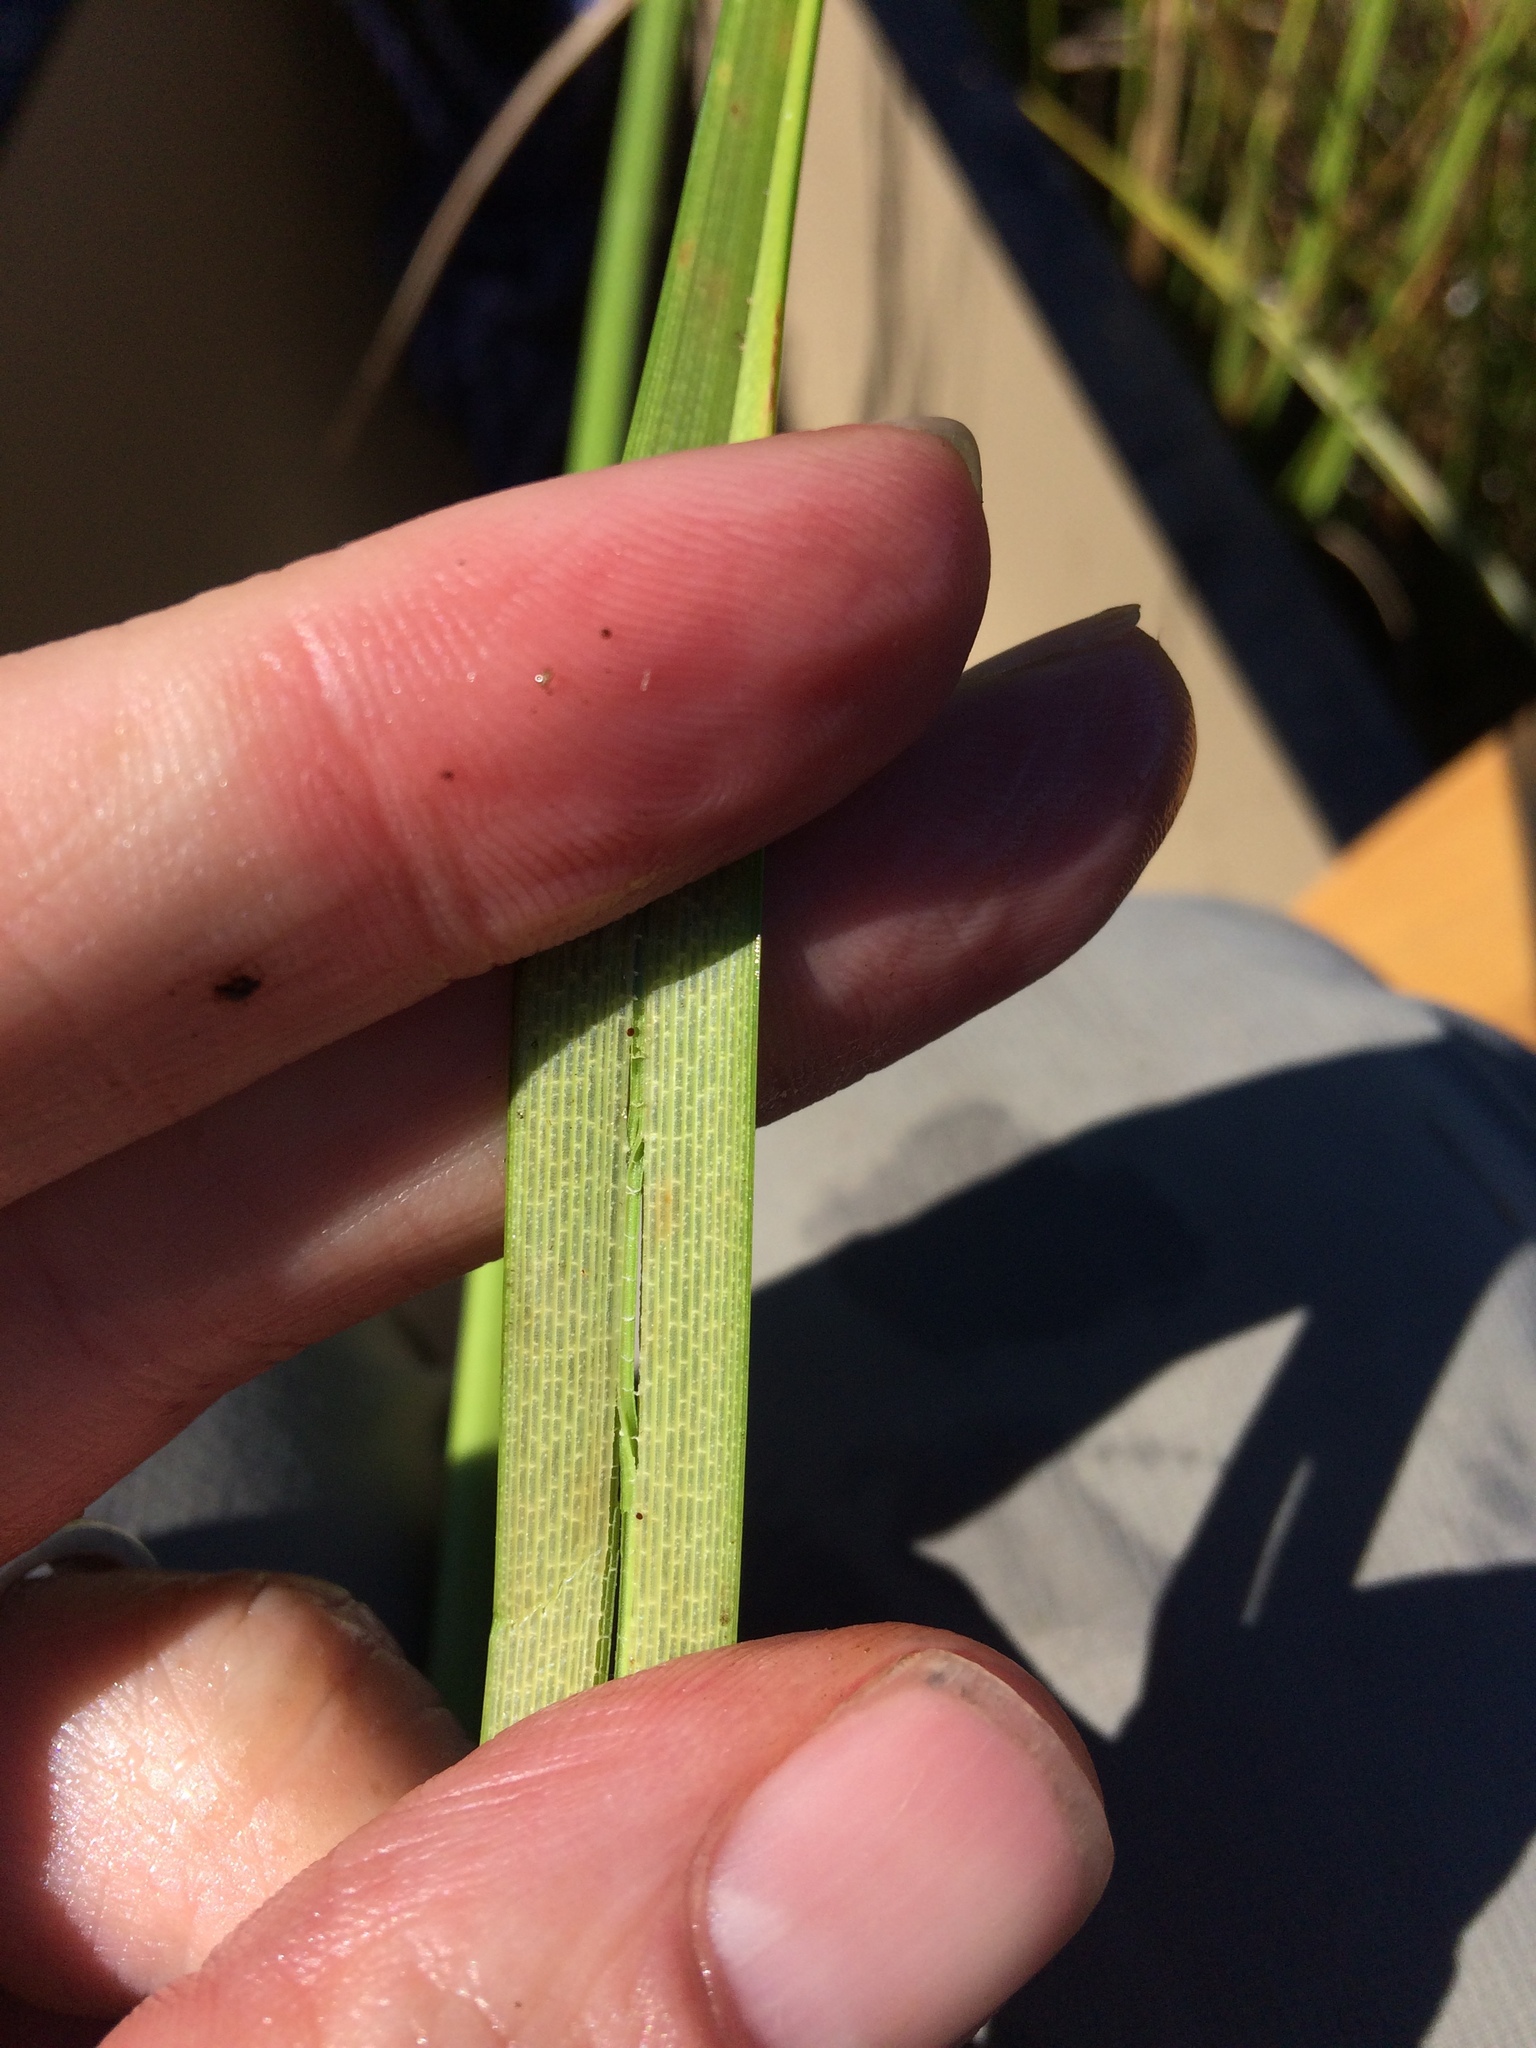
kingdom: Plantae
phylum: Tracheophyta
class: Liliopsida
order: Poales
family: Cyperaceae
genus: Carex
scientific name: Carex utriculata
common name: Beaked sedge
